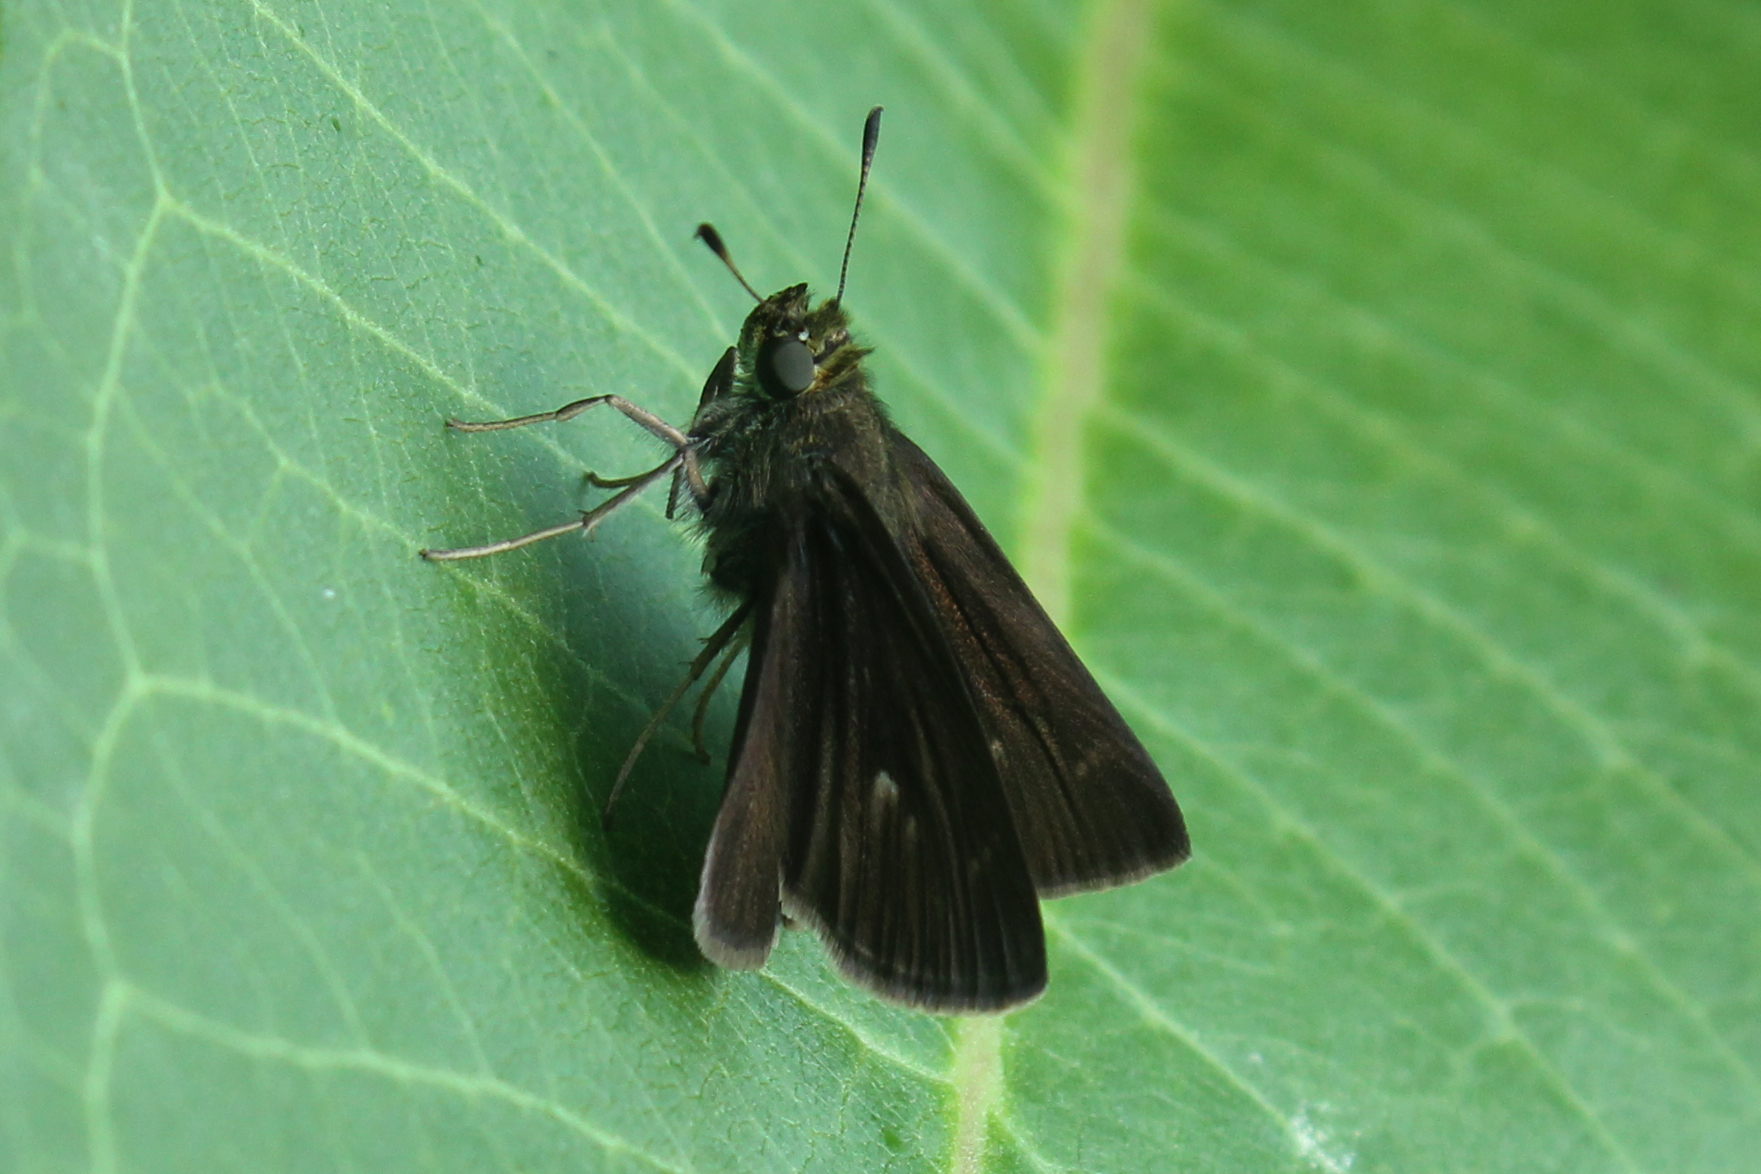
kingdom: Animalia
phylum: Arthropoda
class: Insecta
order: Lepidoptera
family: Hesperiidae
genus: Euphyes
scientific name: Euphyes vestris
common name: Dun skipper
